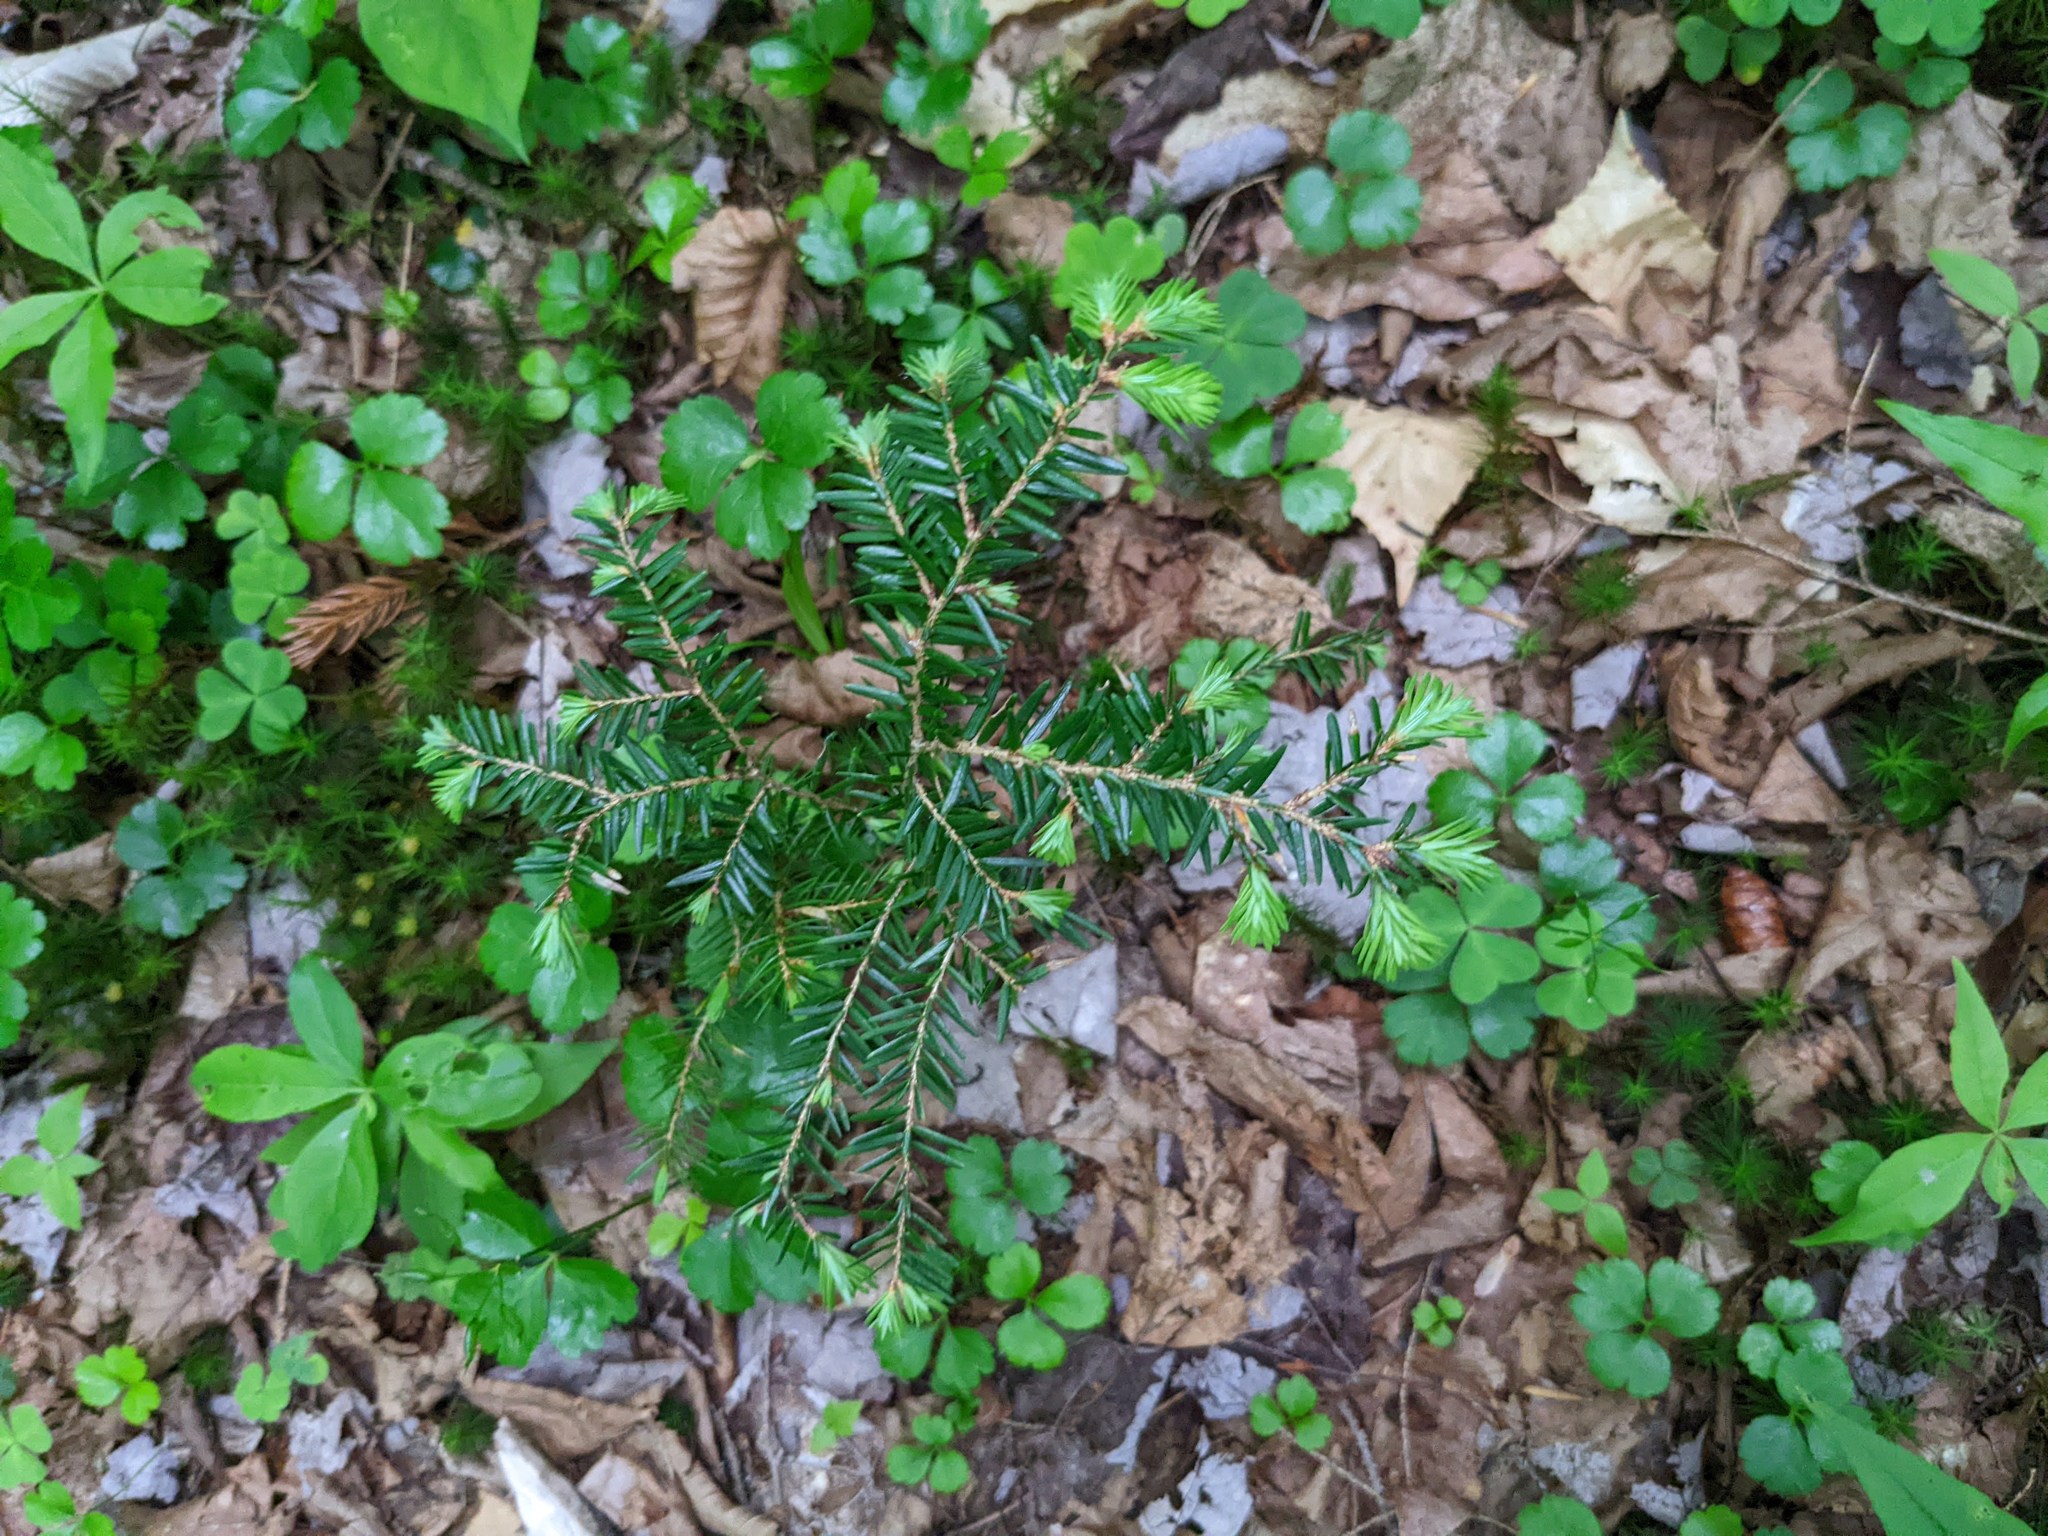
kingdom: Plantae
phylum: Tracheophyta
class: Pinopsida
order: Pinales
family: Pinaceae
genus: Tsuga
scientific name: Tsuga canadensis
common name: Eastern hemlock
